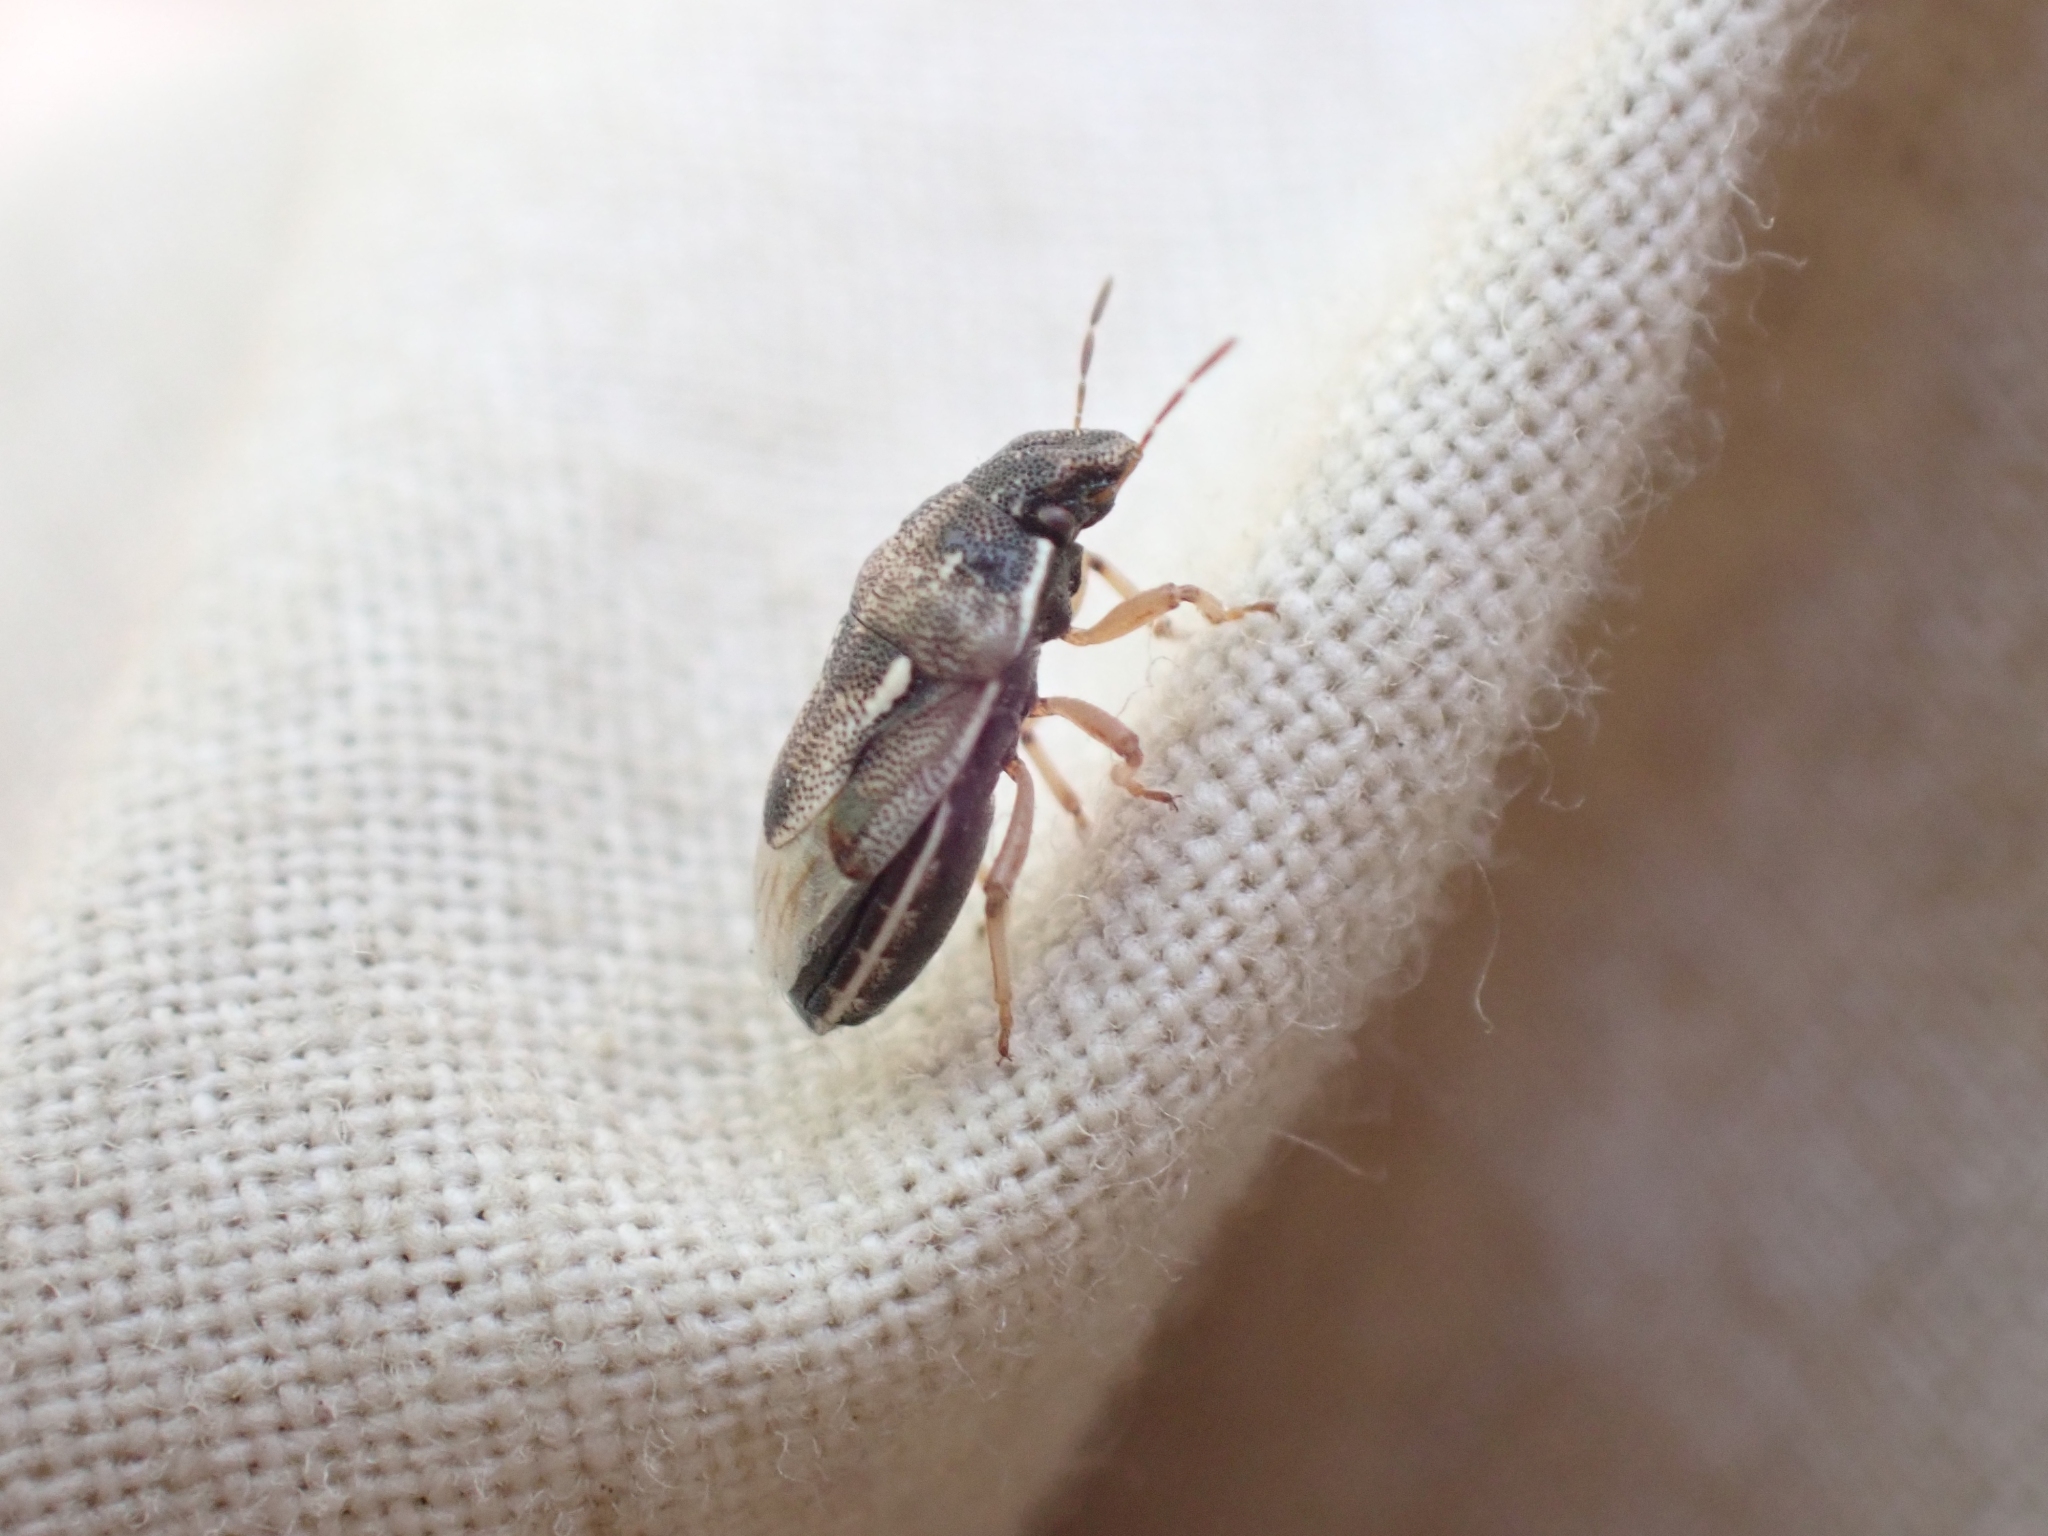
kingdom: Animalia
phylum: Arthropoda
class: Insecta
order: Hemiptera
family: Pentatomidae
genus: Neottiglossa
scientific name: Neottiglossa tumidifrons
